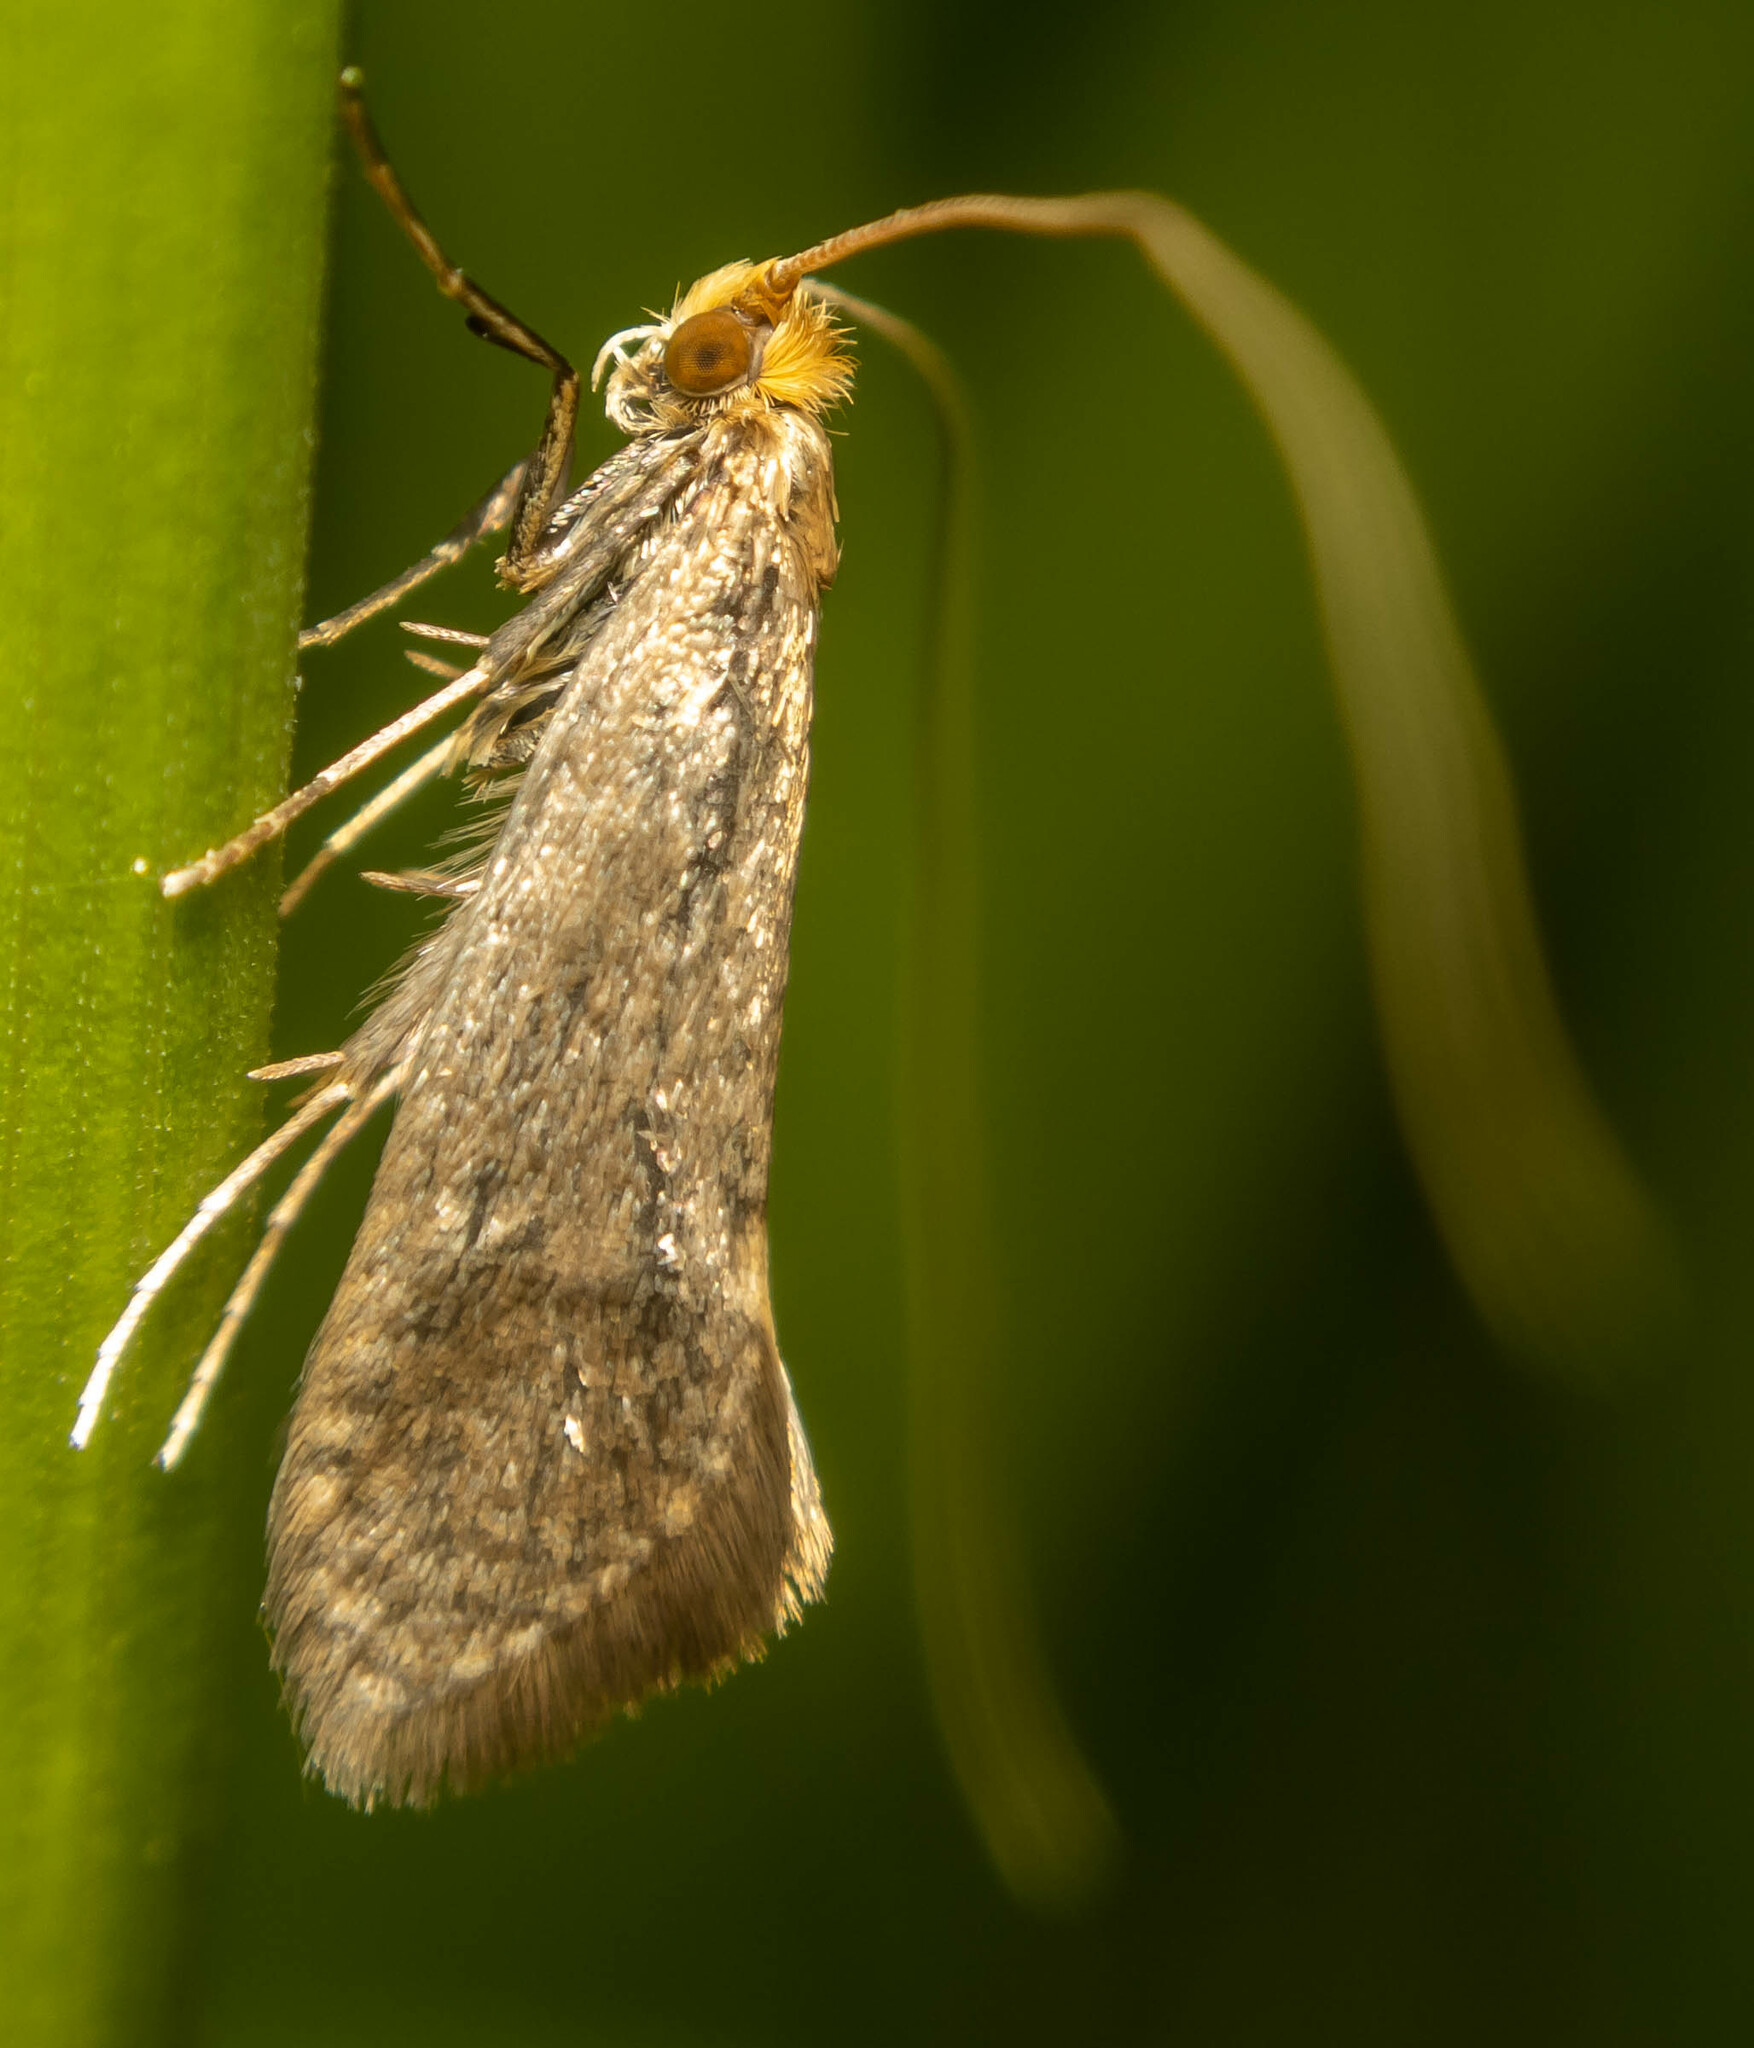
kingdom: Animalia
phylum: Arthropoda
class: Insecta
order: Lepidoptera
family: Adelidae
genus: Nematopogon
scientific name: Nematopogon schwarziellus
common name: Sandy long-horn
